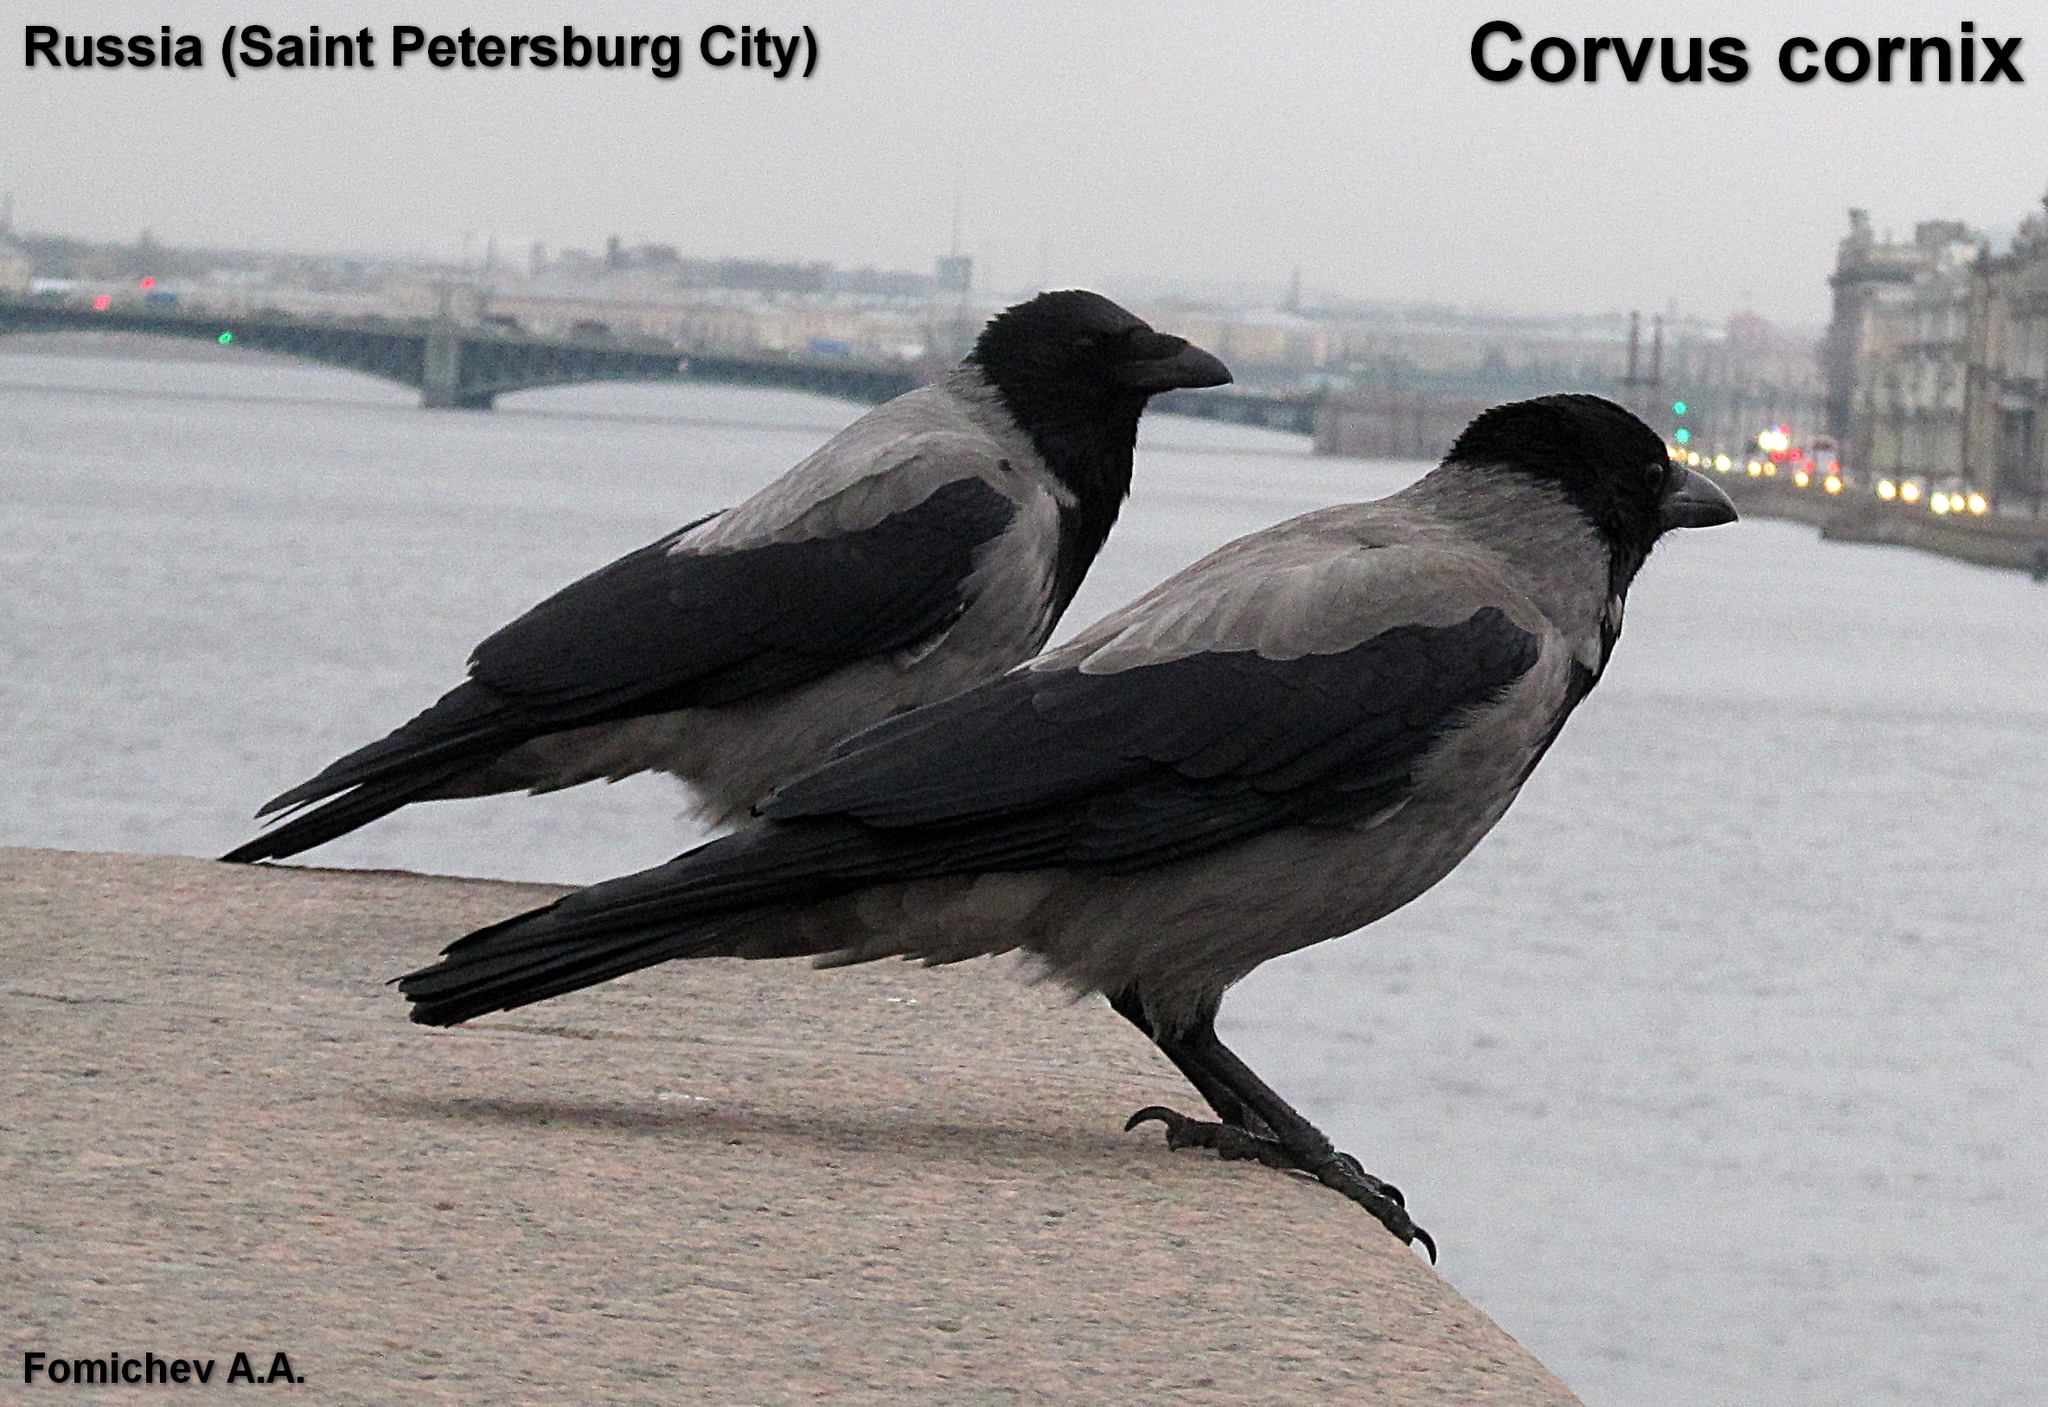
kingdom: Animalia
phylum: Chordata
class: Aves
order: Passeriformes
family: Corvidae
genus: Corvus
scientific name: Corvus cornix
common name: Hooded crow
